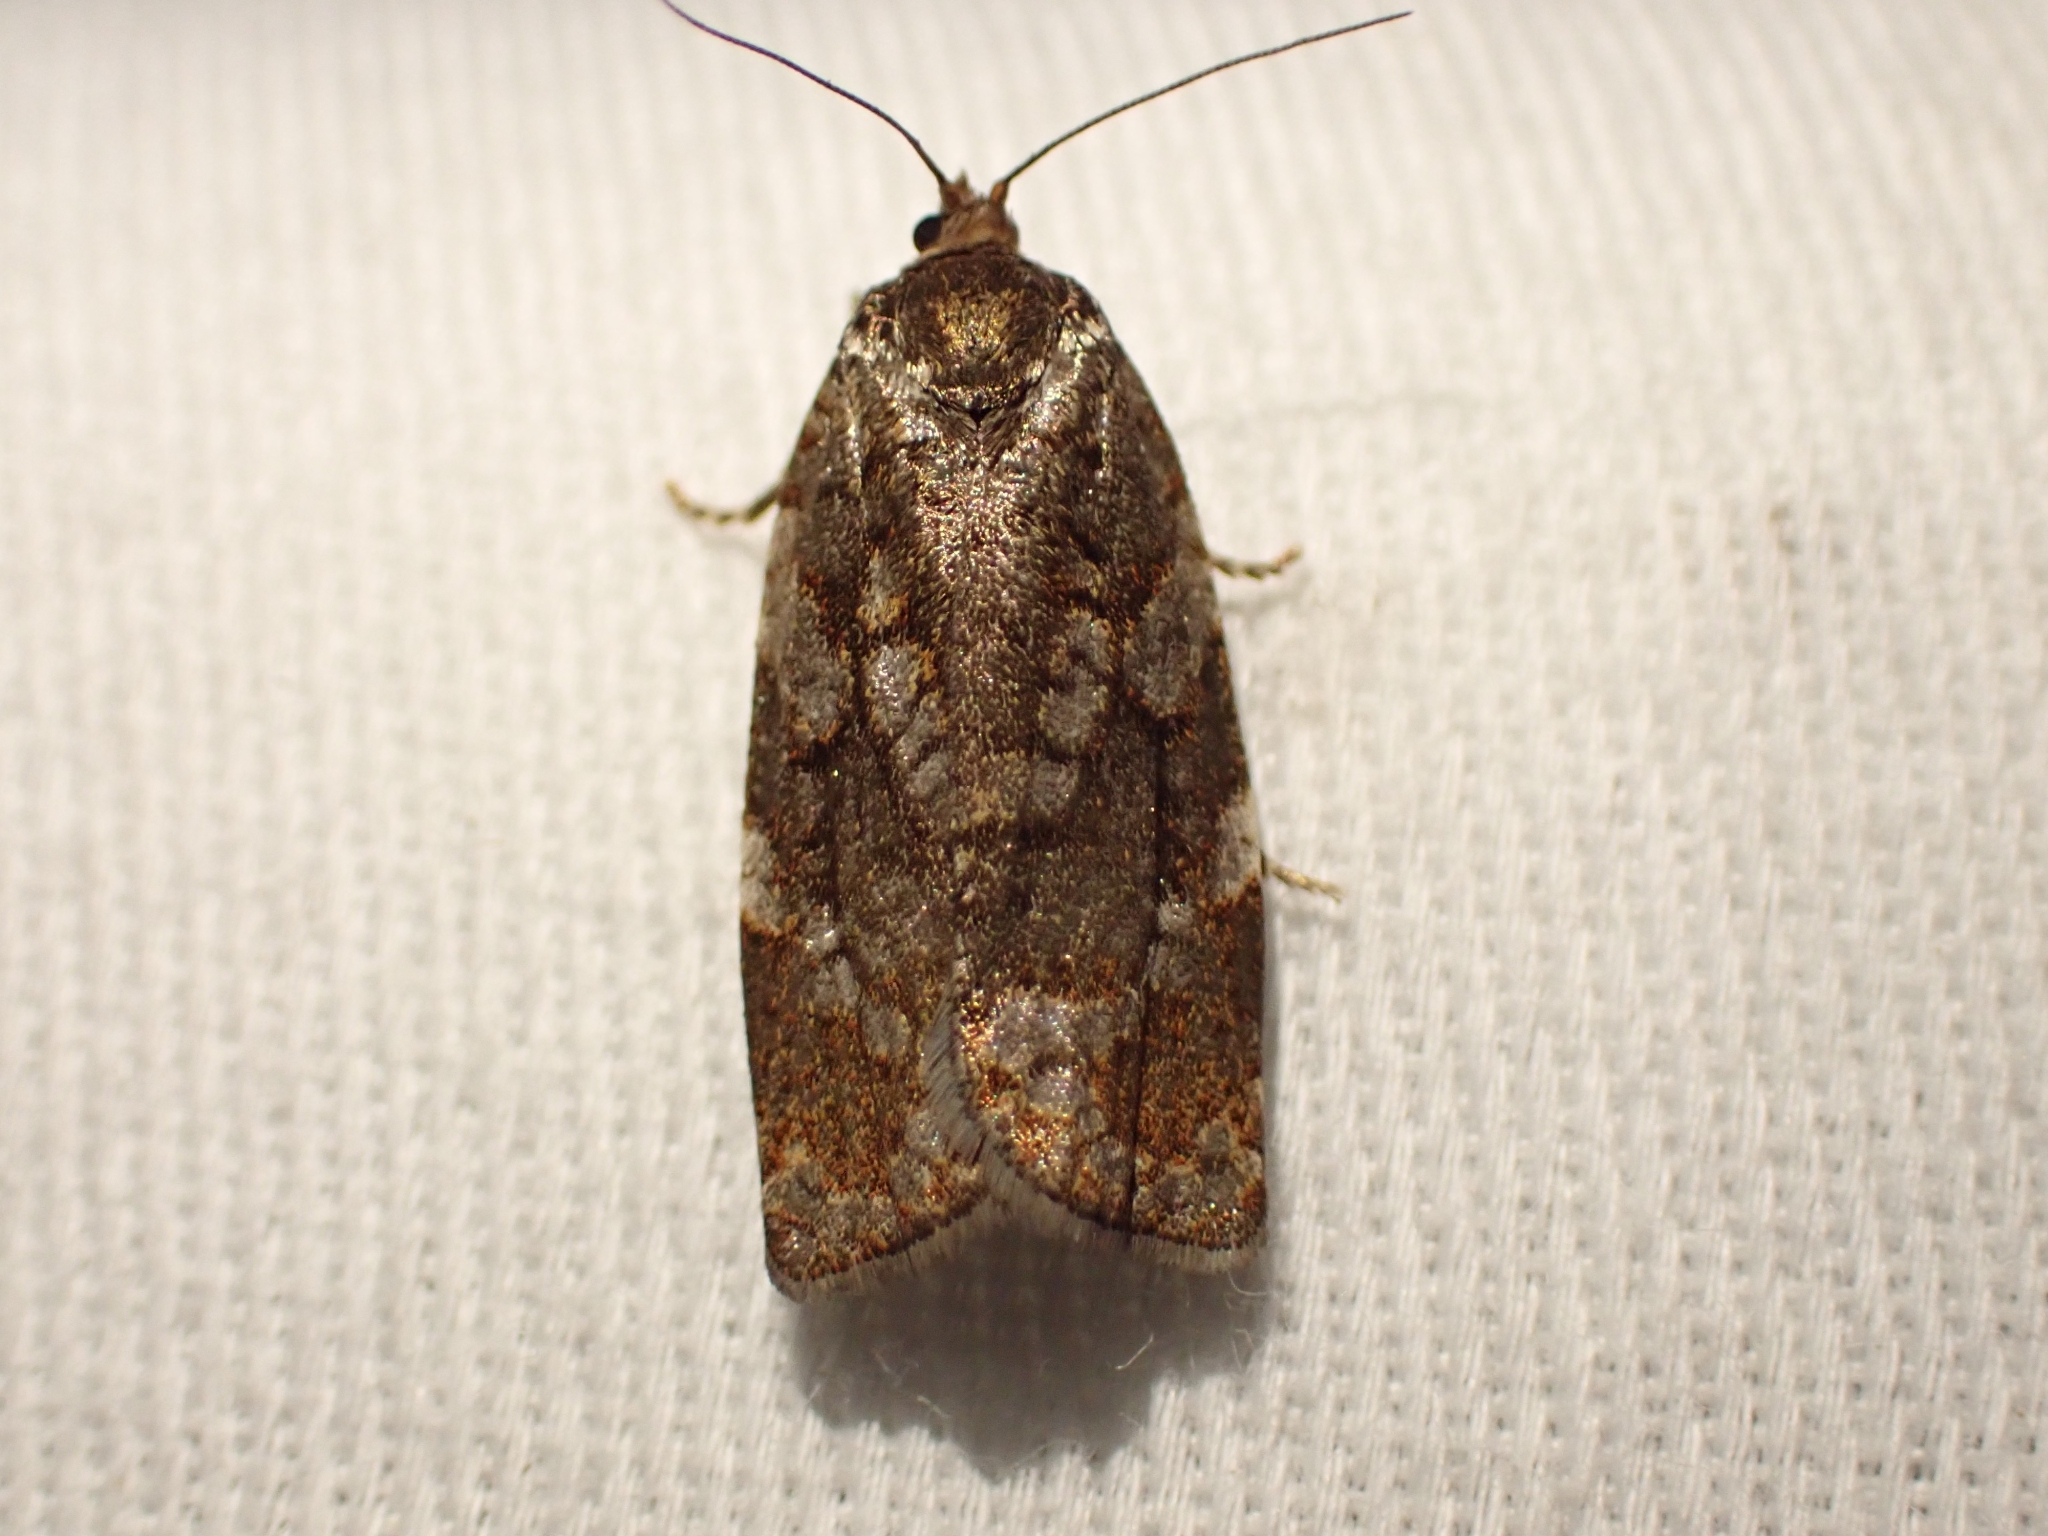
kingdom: Animalia
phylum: Arthropoda
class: Insecta
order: Lepidoptera
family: Tortricidae
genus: Choristoneura
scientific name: Choristoneura occidentalis
